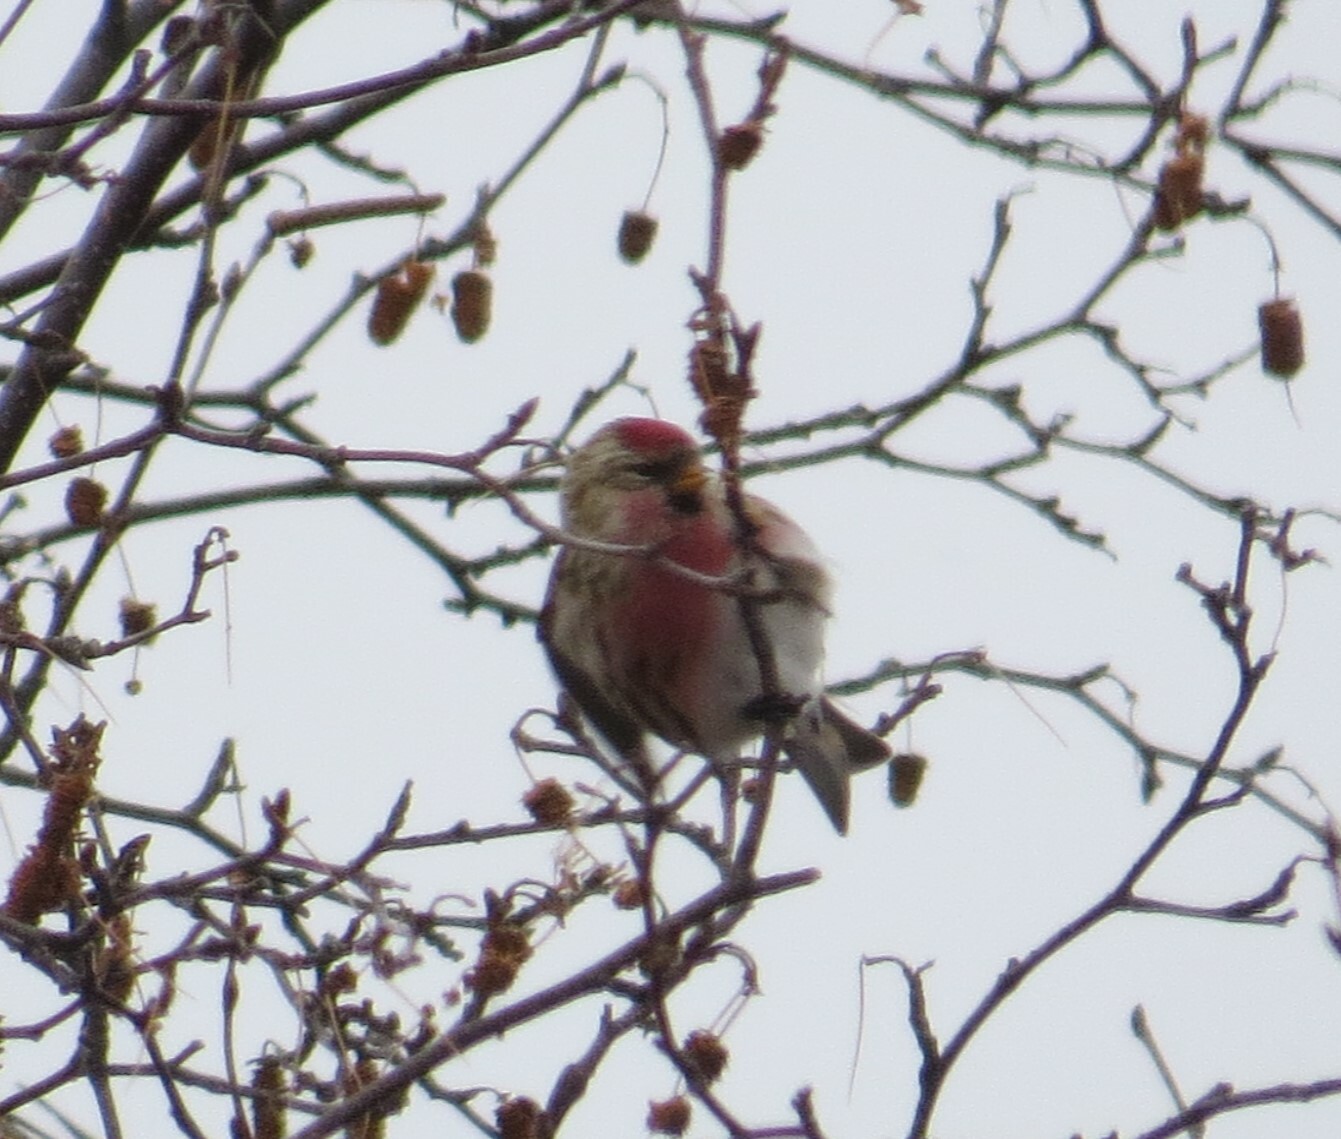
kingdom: Animalia
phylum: Chordata
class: Aves
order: Passeriformes
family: Fringillidae
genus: Acanthis
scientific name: Acanthis flammea
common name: Common redpoll
